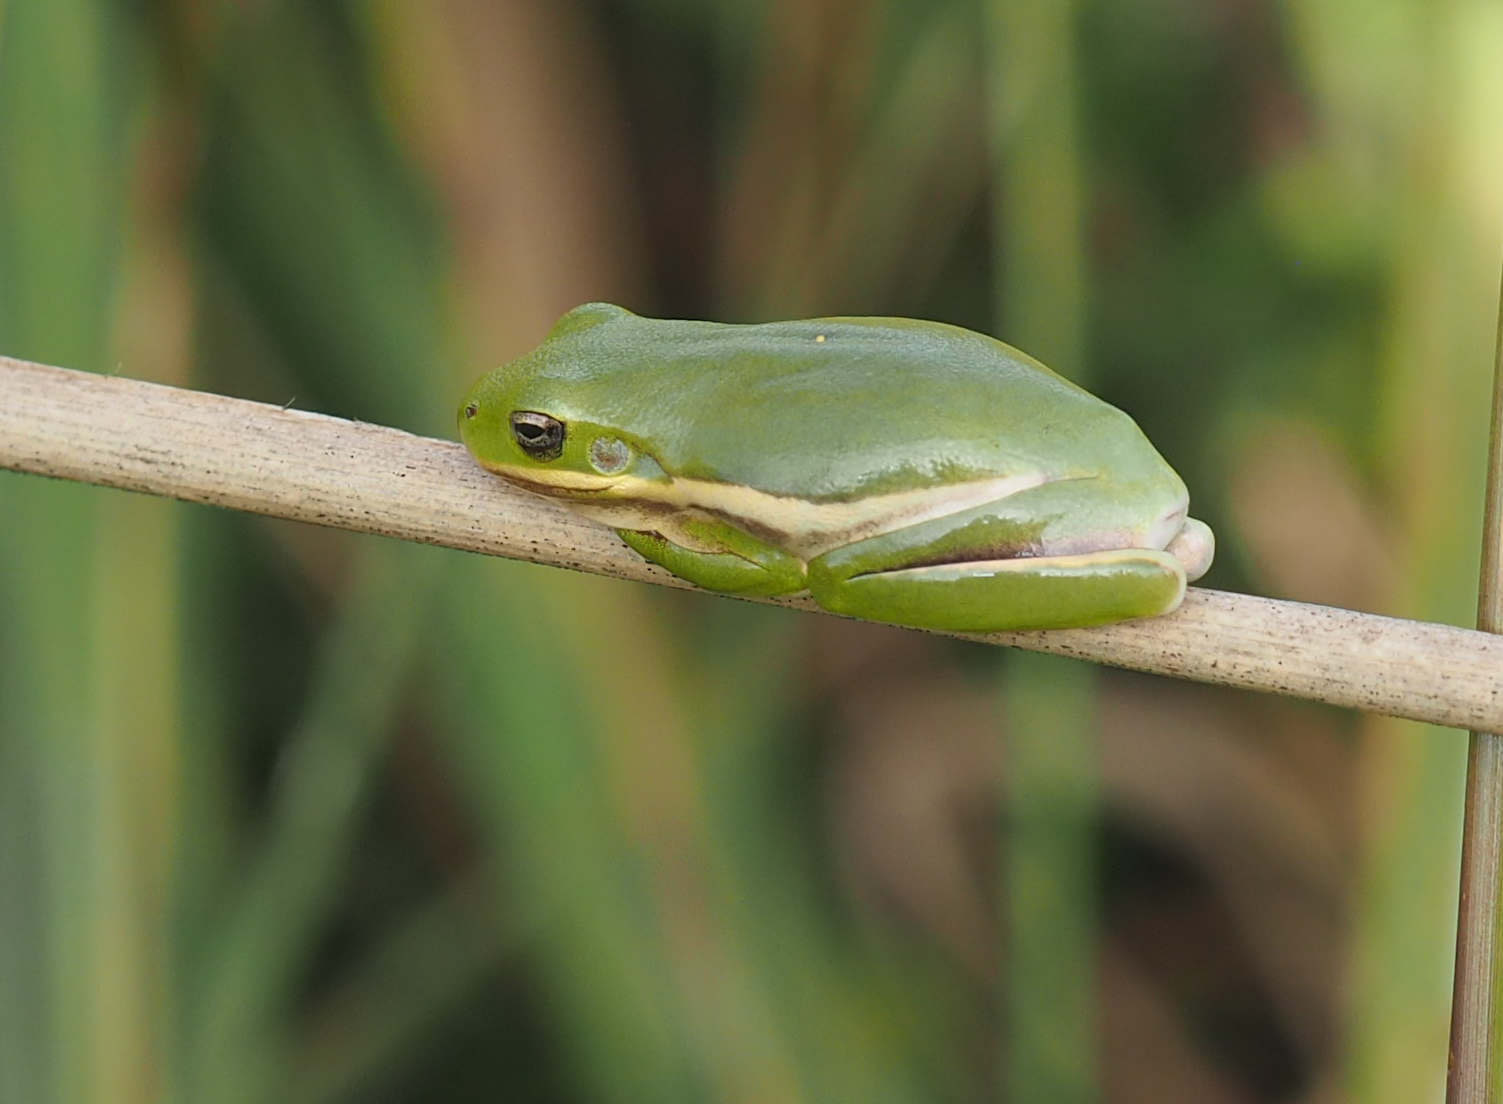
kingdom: Animalia
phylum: Chordata
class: Amphibia
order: Anura
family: Hylidae
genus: Dryophytes
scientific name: Dryophytes cinereus
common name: Green treefrog
